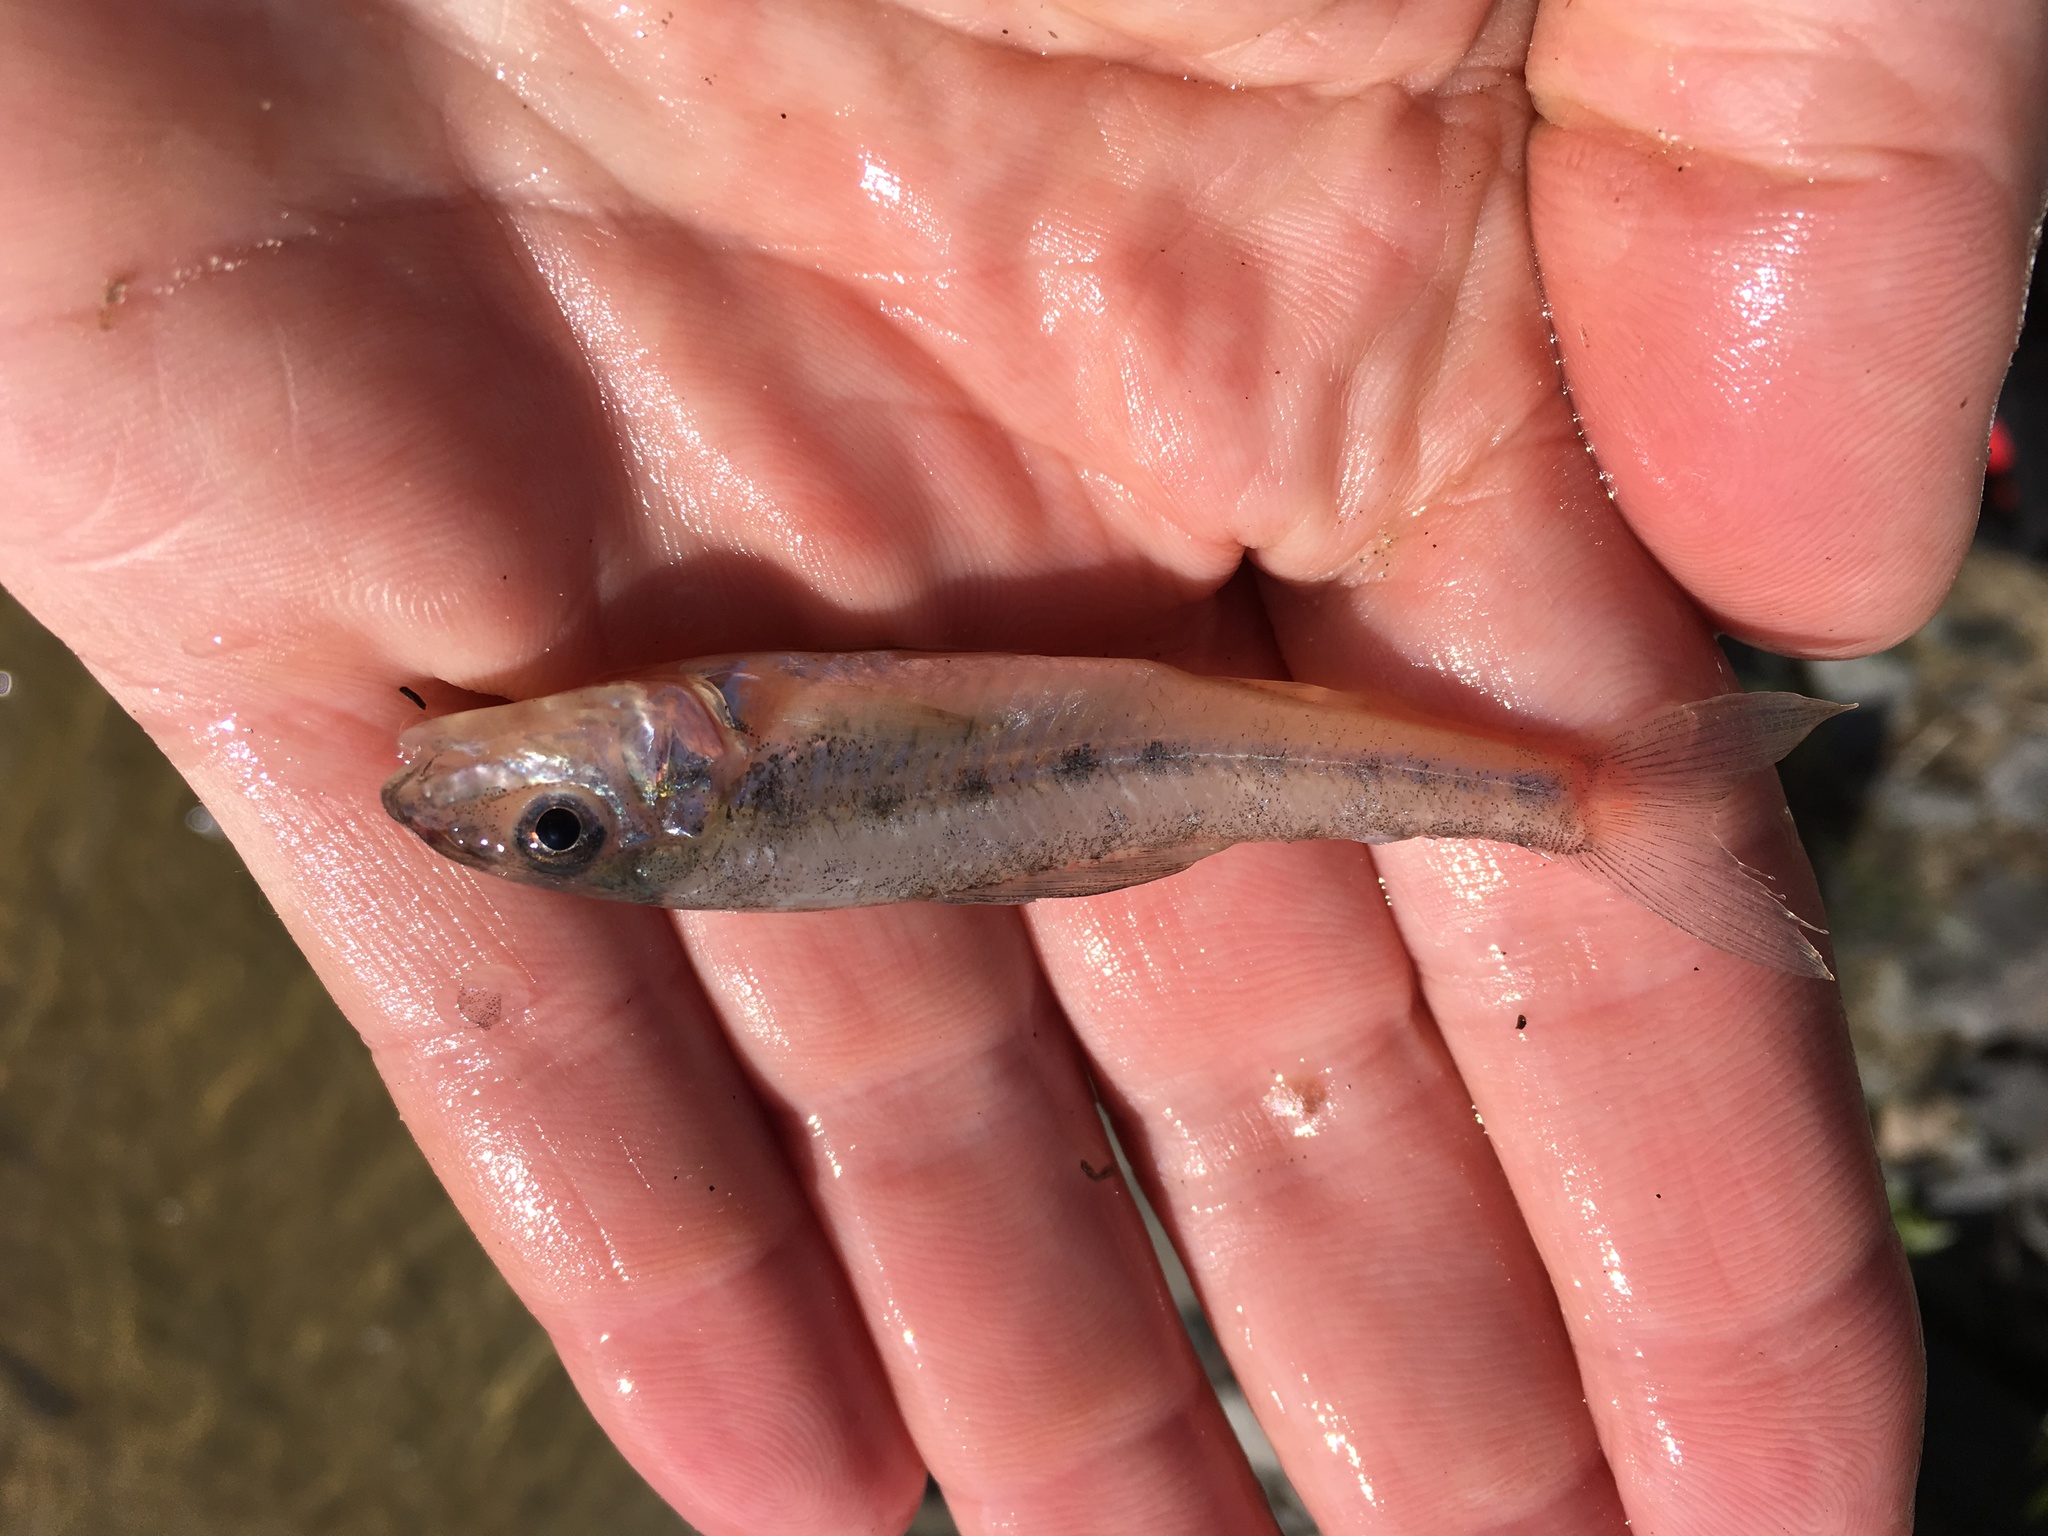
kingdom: Animalia
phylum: Chordata
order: Percopsiformes
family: Percopsidae
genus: Percopsis
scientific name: Percopsis omiscomaycus
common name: Trout-perch
